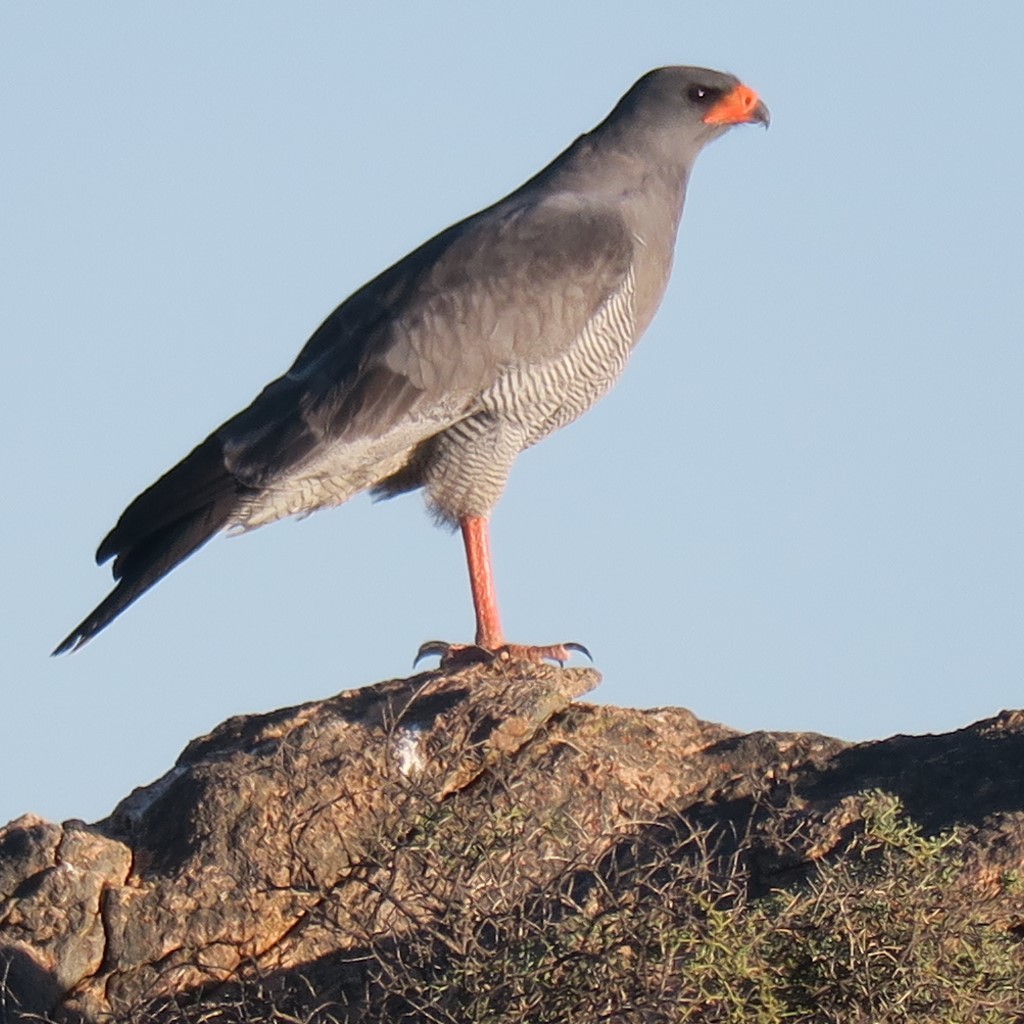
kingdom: Animalia
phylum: Chordata
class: Aves
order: Accipitriformes
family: Accipitridae
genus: Melierax
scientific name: Melierax canorus
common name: Pale chanting-goshawk
